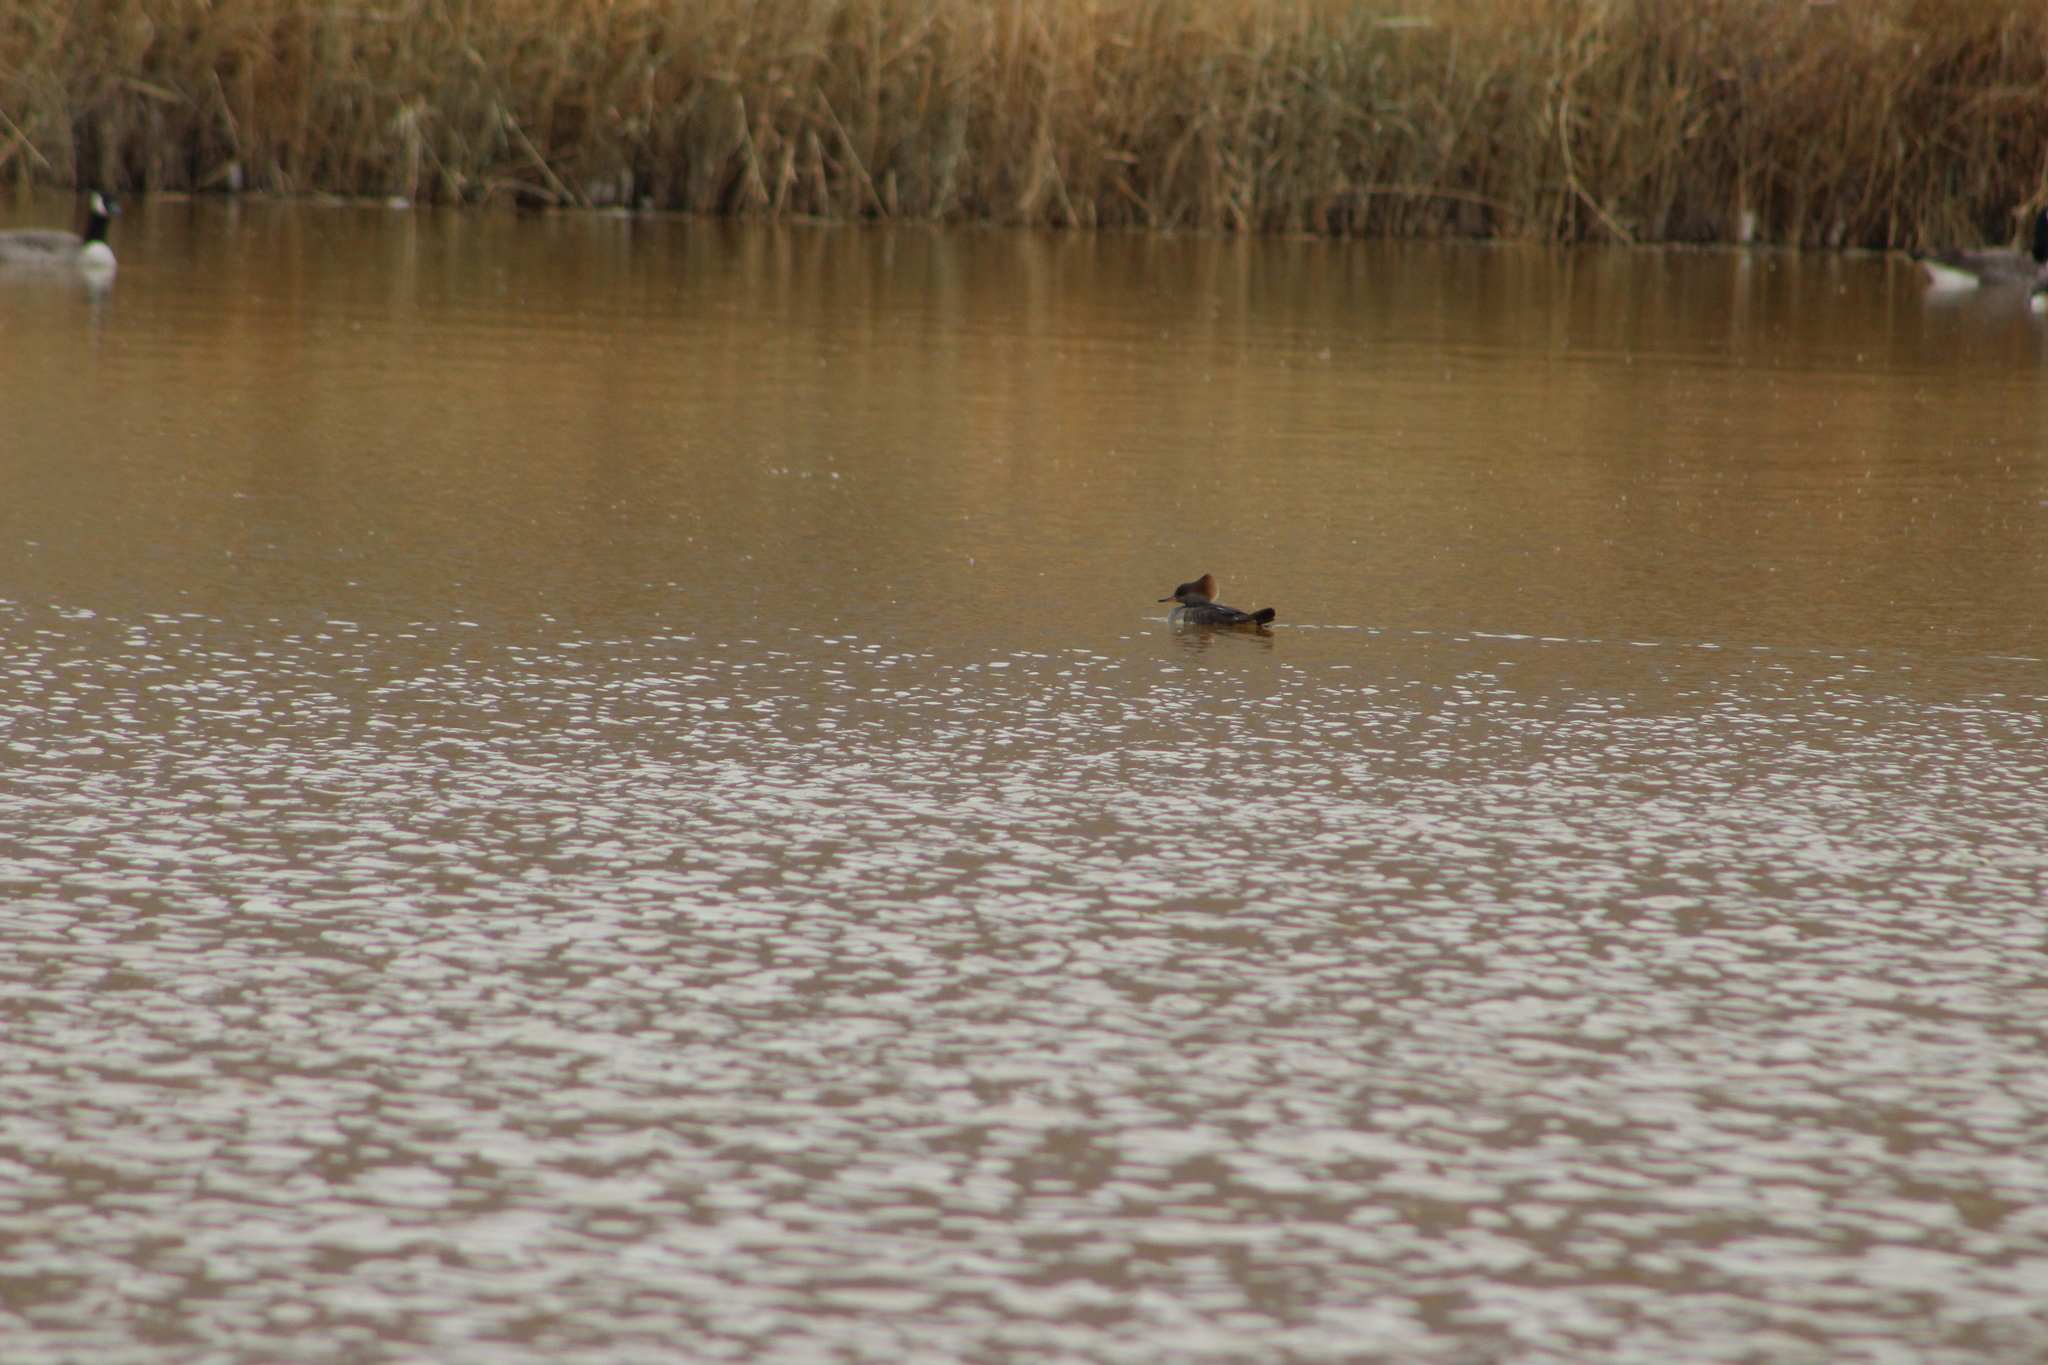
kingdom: Animalia
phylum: Chordata
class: Aves
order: Anseriformes
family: Anatidae
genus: Lophodytes
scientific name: Lophodytes cucullatus
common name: Hooded merganser
